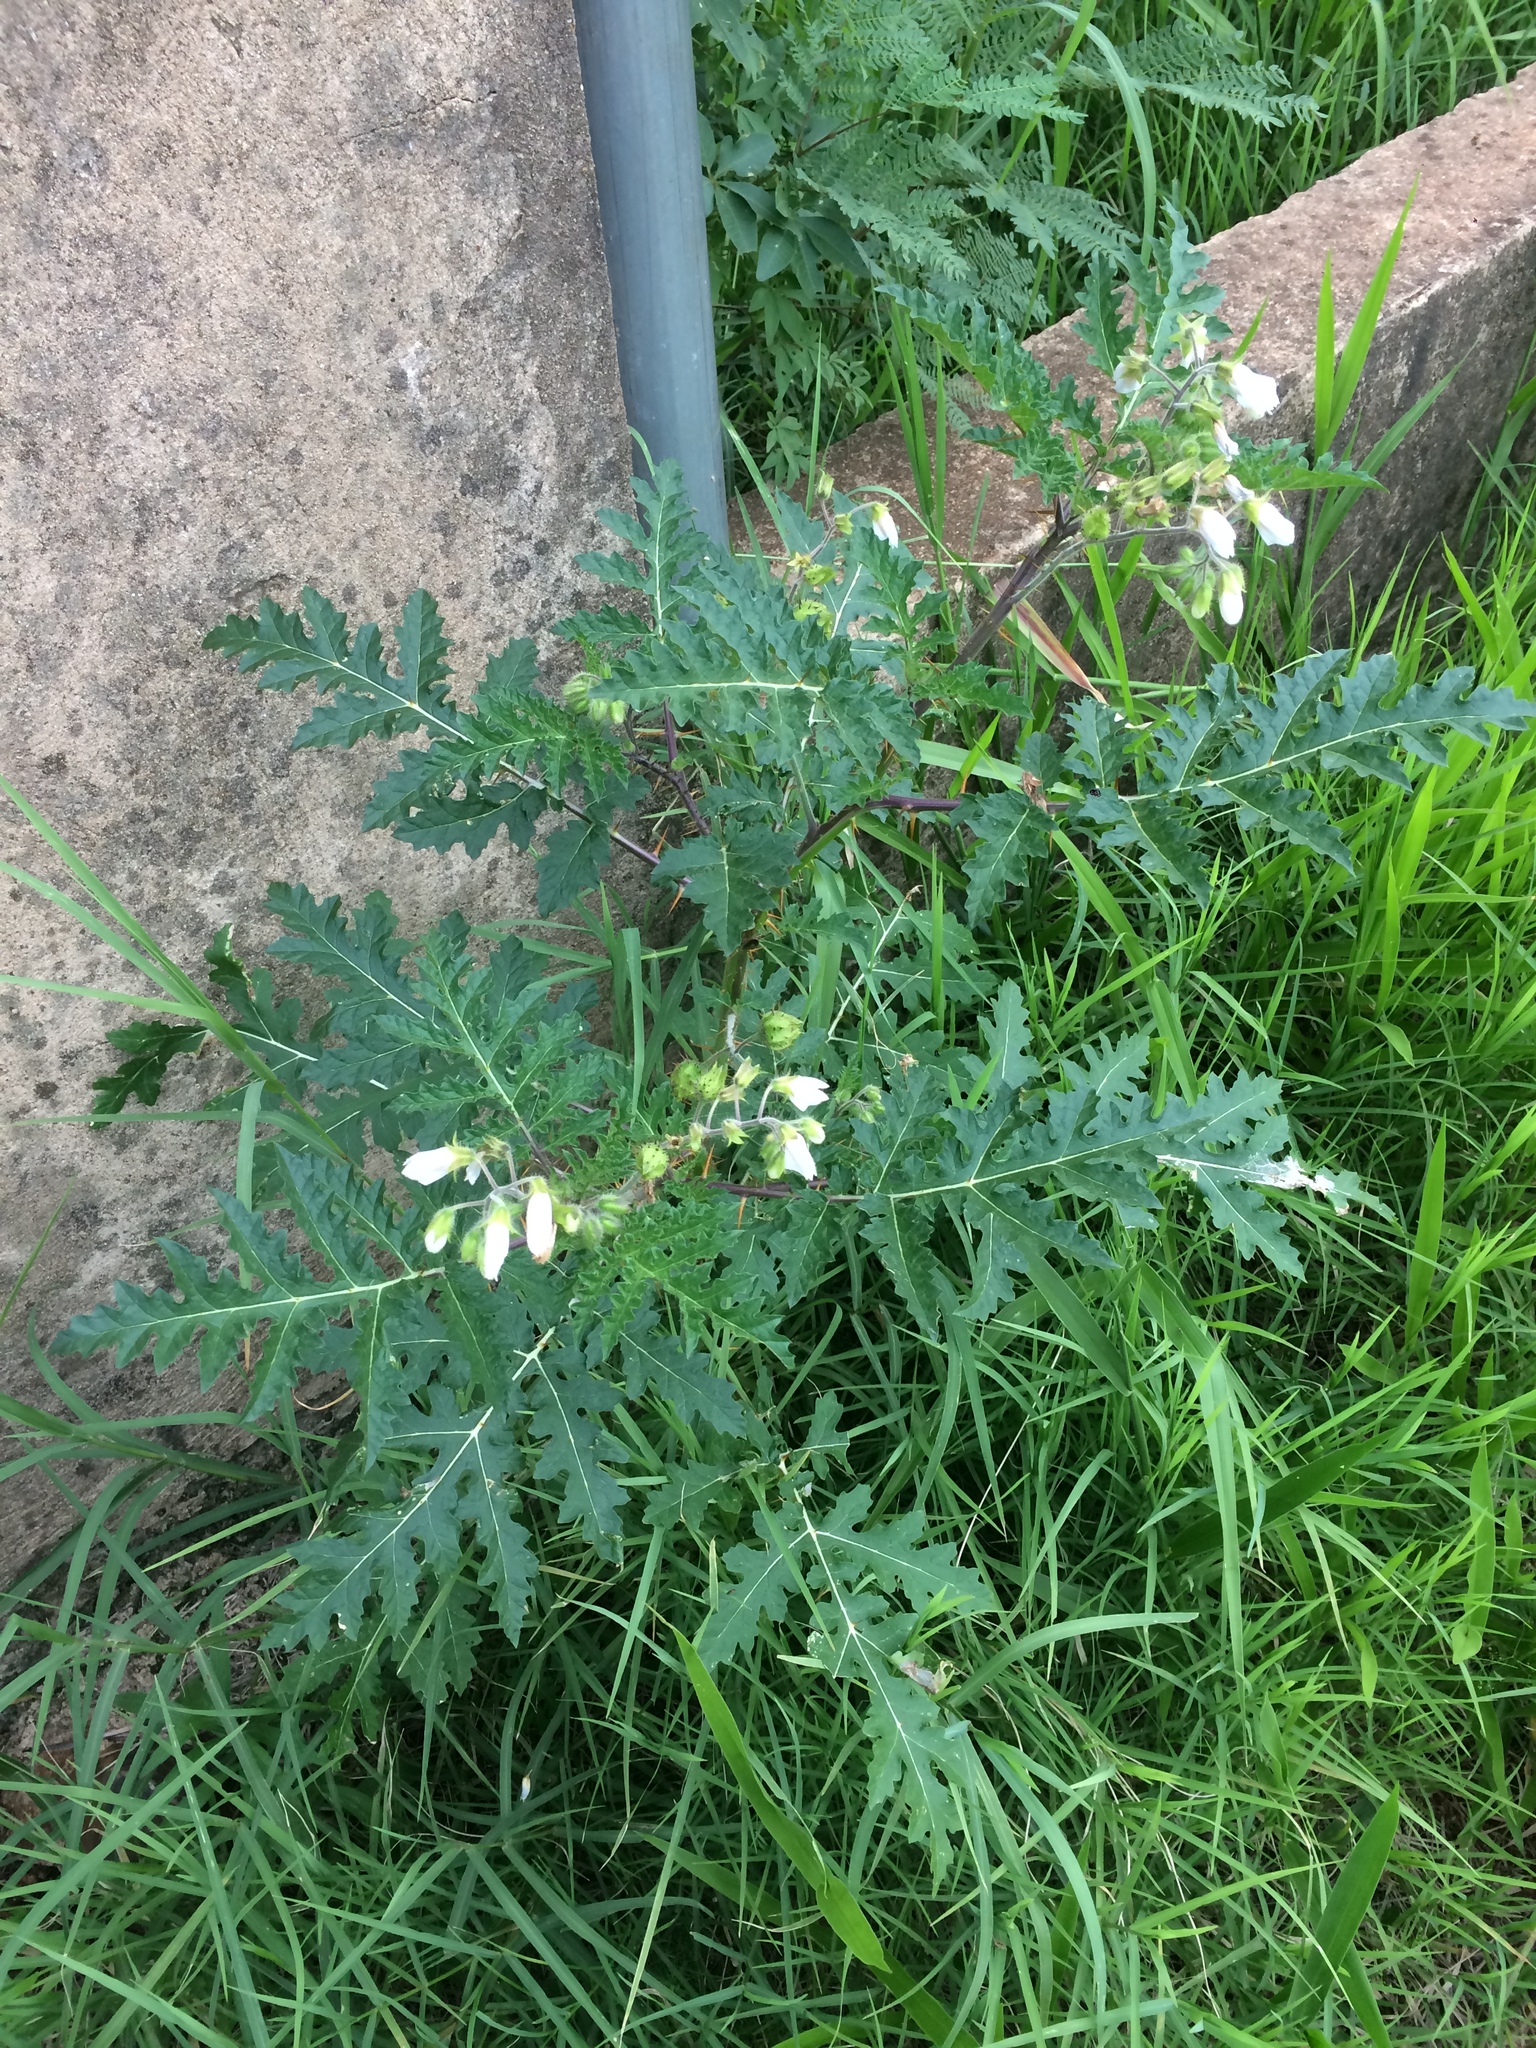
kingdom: Plantae
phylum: Tracheophyta
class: Magnoliopsida
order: Solanales
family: Solanaceae
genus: Solanum
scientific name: Solanum sisymbriifolium
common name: Red buffalo-bur
